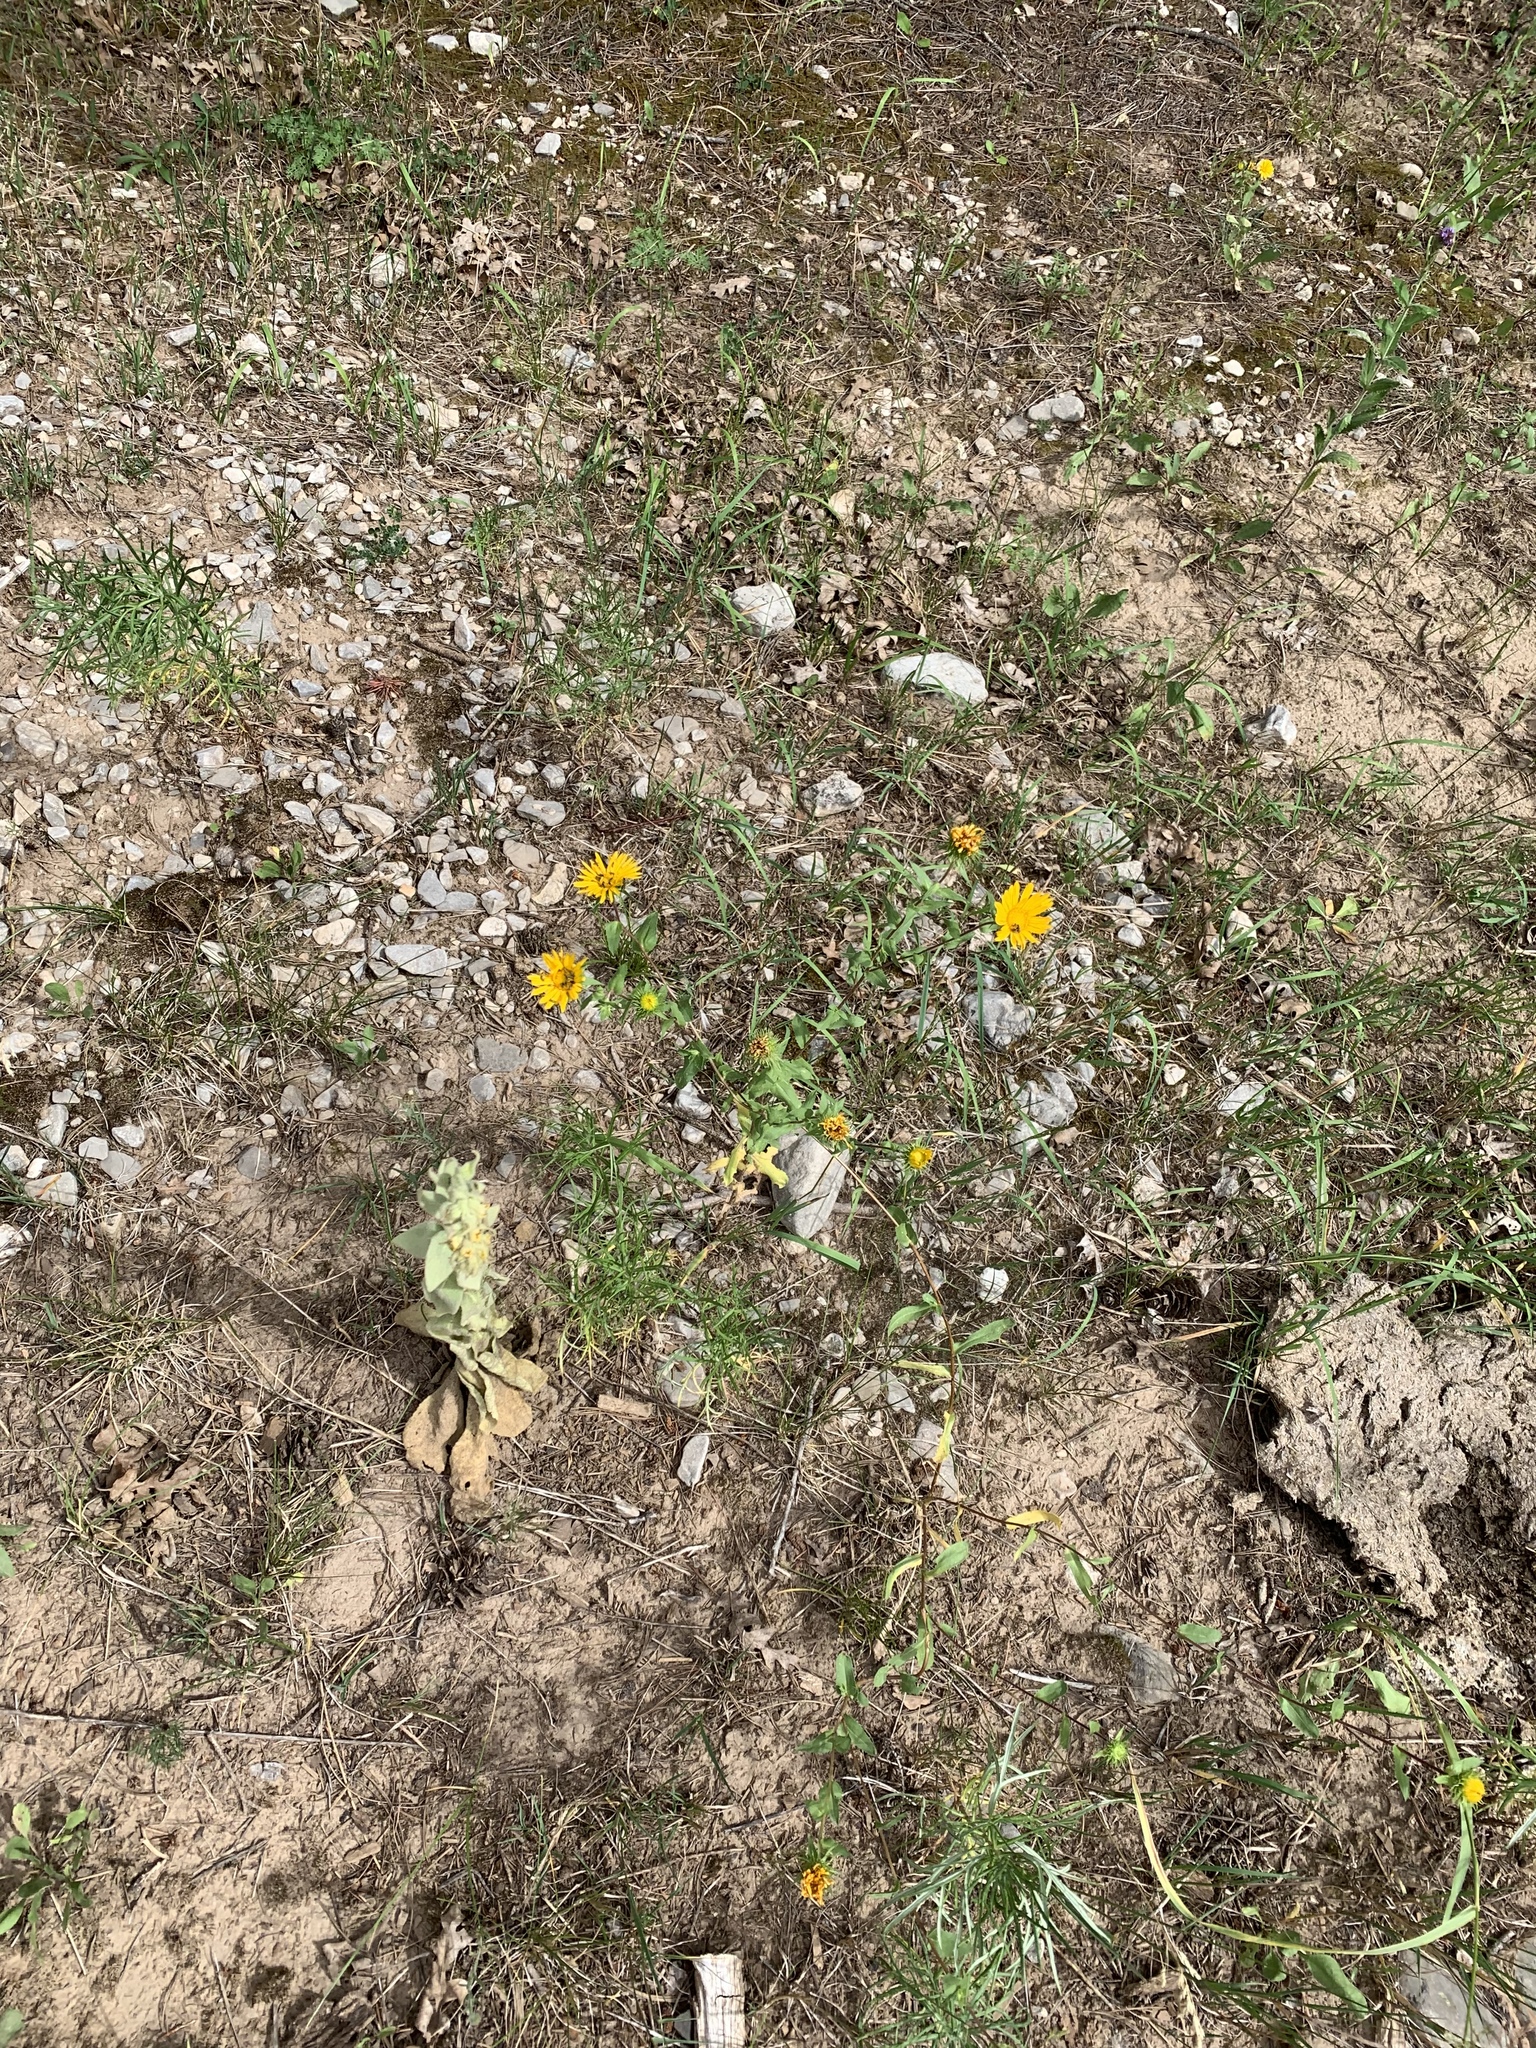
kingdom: Plantae
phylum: Tracheophyta
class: Magnoliopsida
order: Asterales
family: Asteraceae
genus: Grindelia
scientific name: Grindelia scabra
